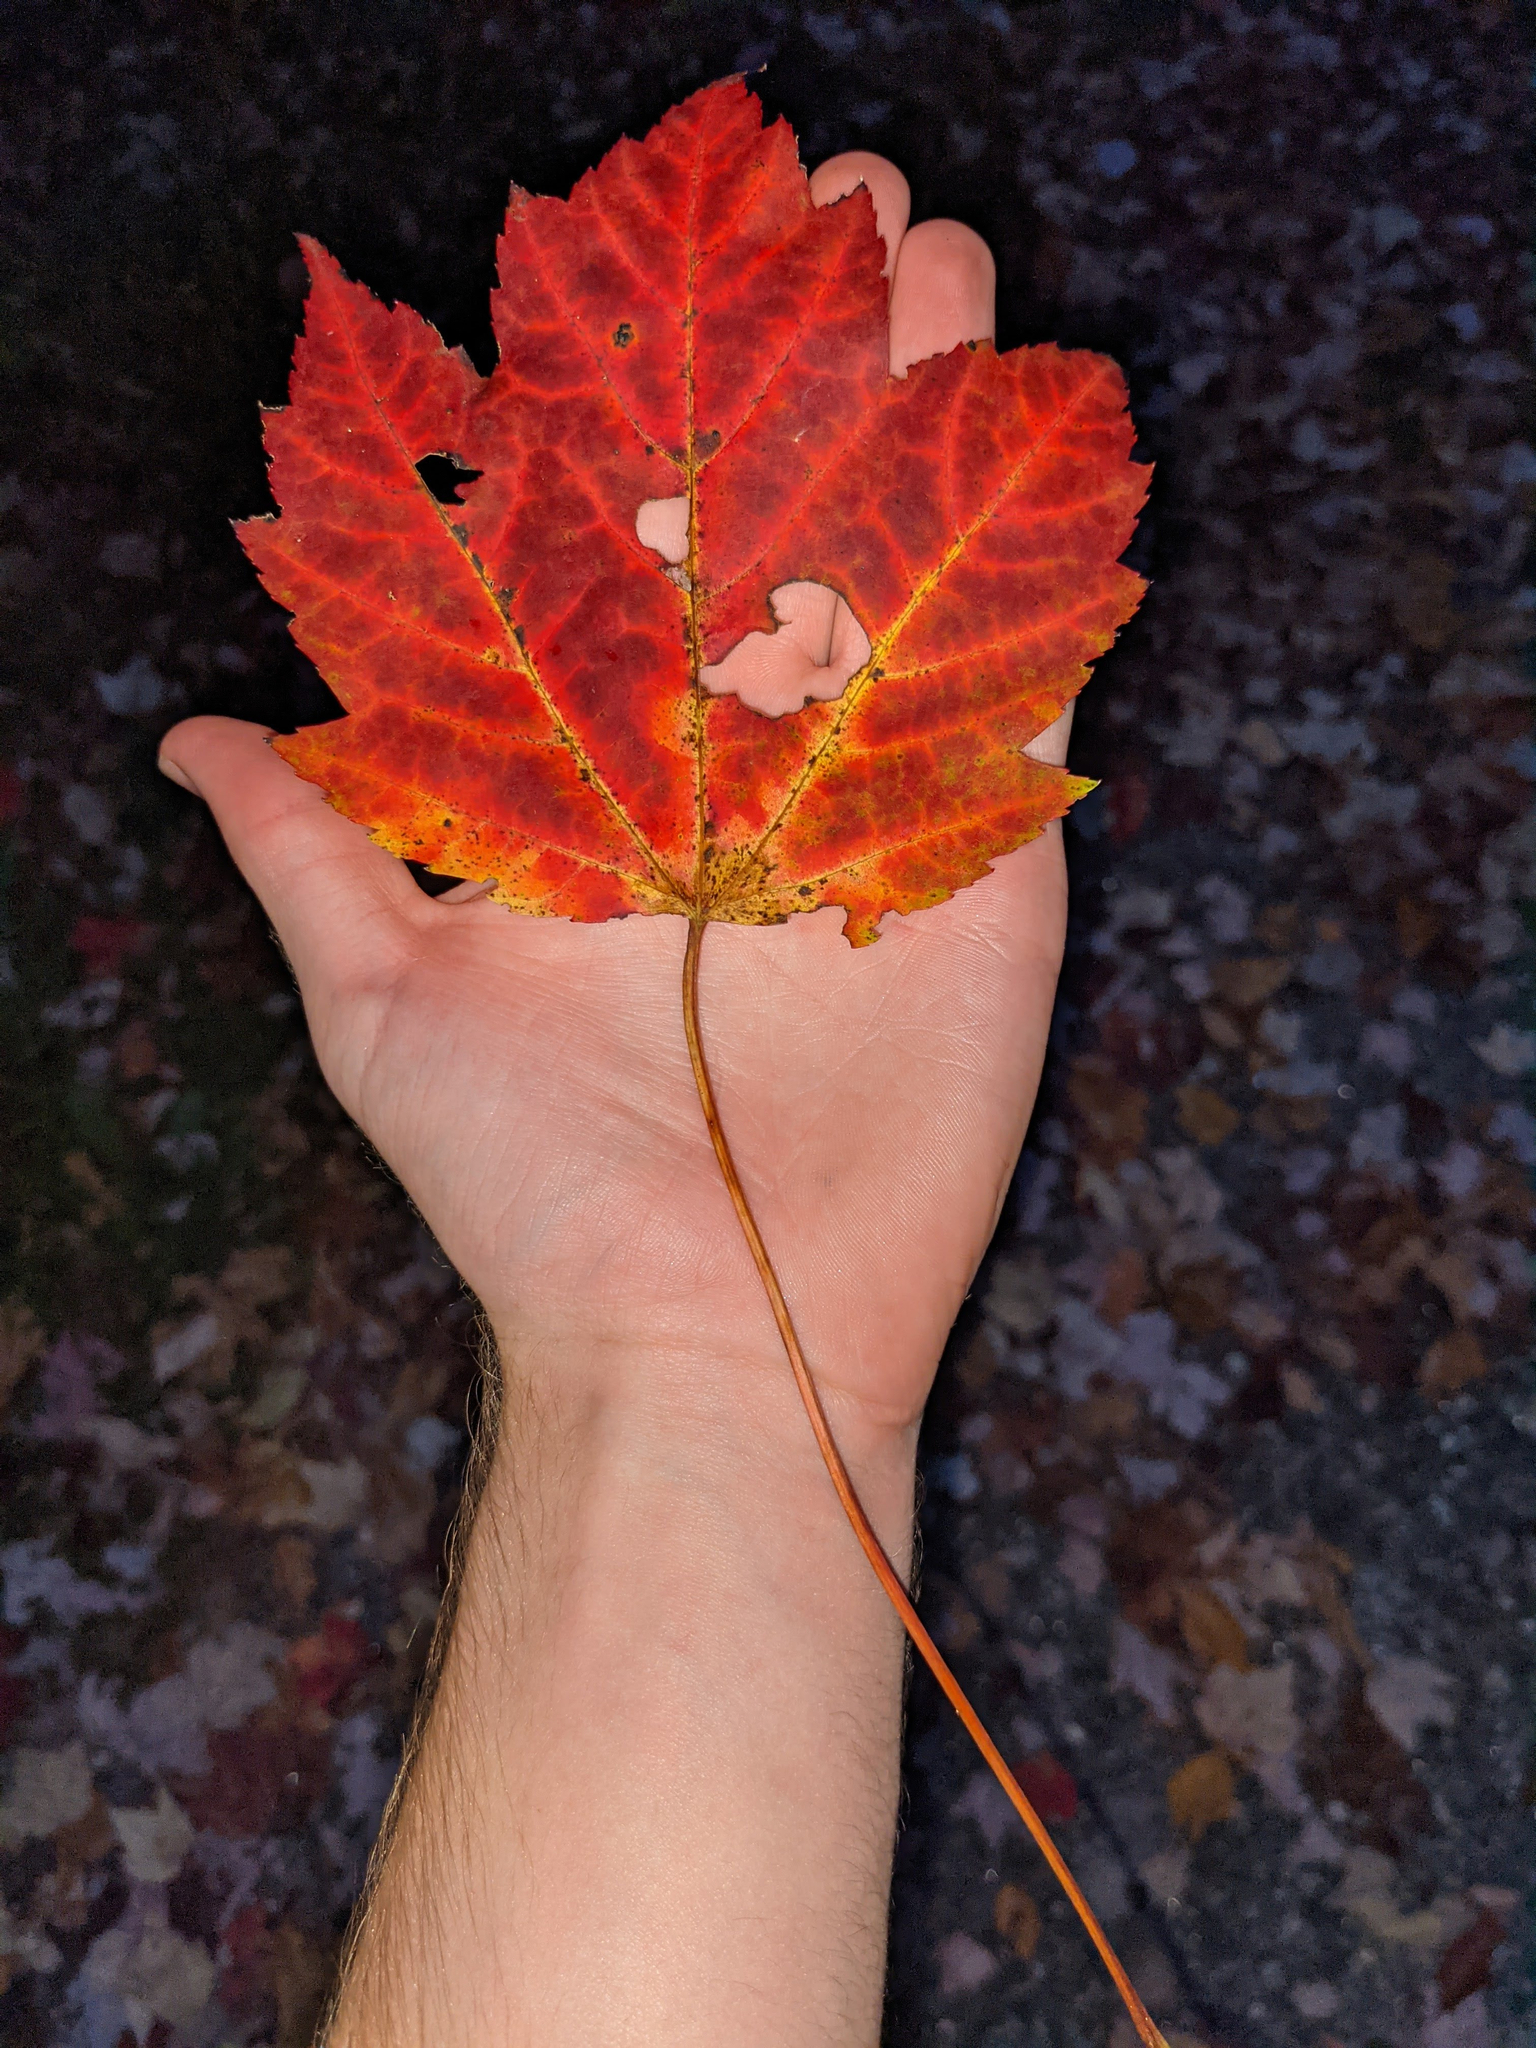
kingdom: Plantae
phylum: Tracheophyta
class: Magnoliopsida
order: Sapindales
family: Sapindaceae
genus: Acer
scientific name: Acer rubrum
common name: Red maple
